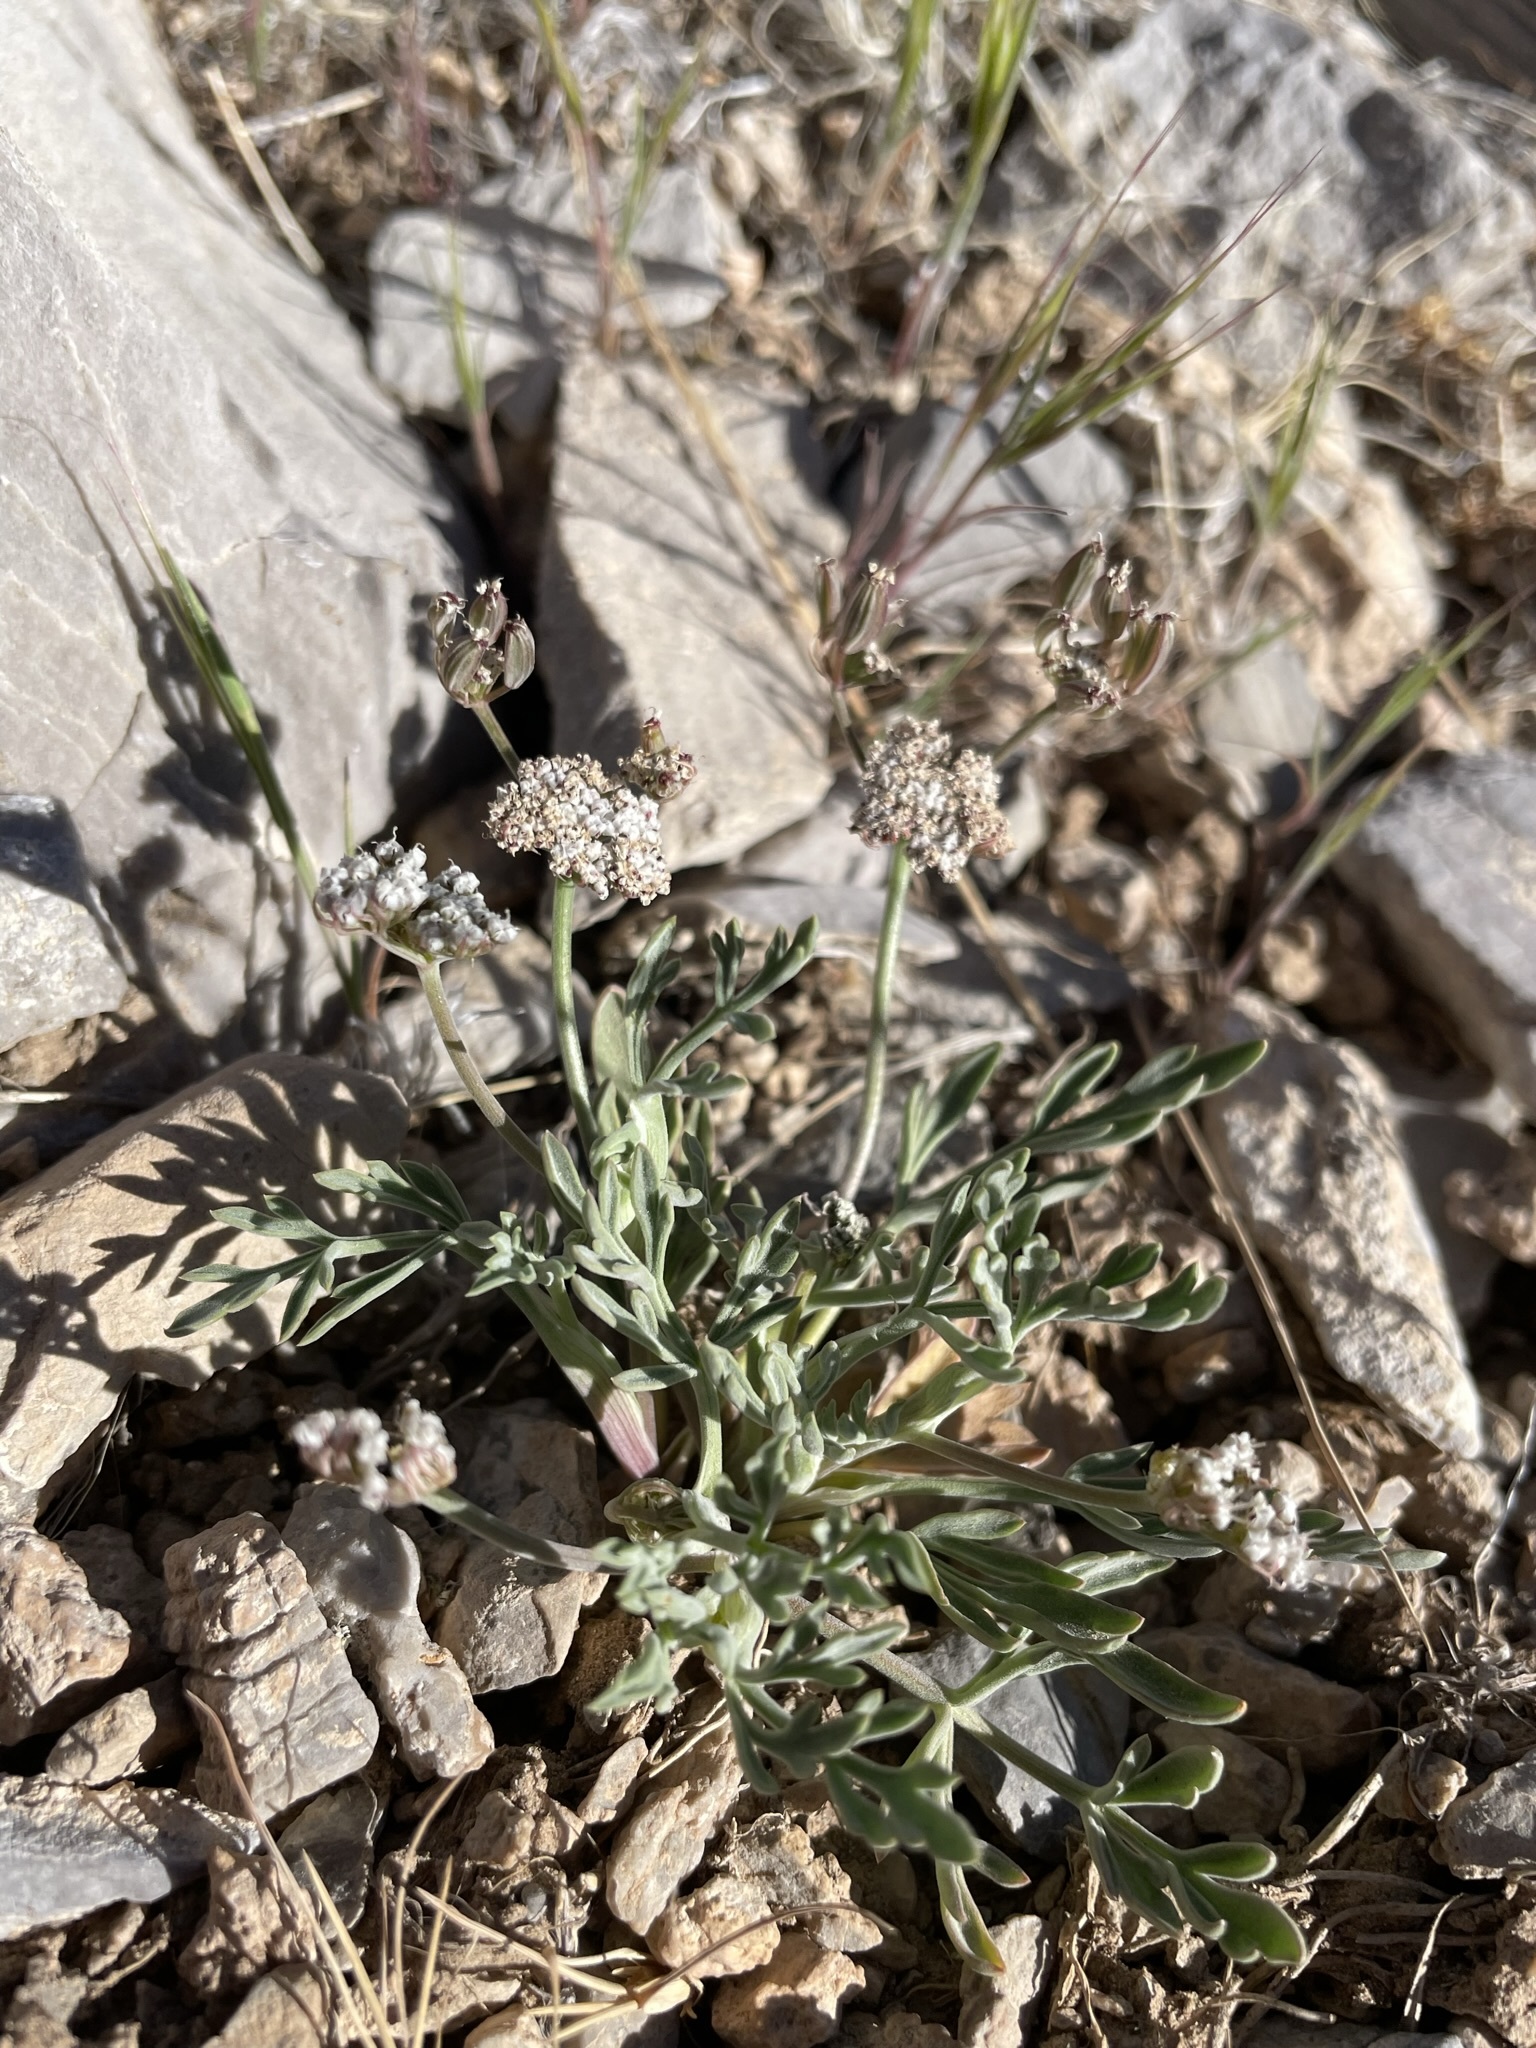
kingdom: Plantae
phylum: Tracheophyta
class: Magnoliopsida
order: Apiales
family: Apiaceae
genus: Lomatium
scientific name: Lomatium nevadense
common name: Nevada lomatium
